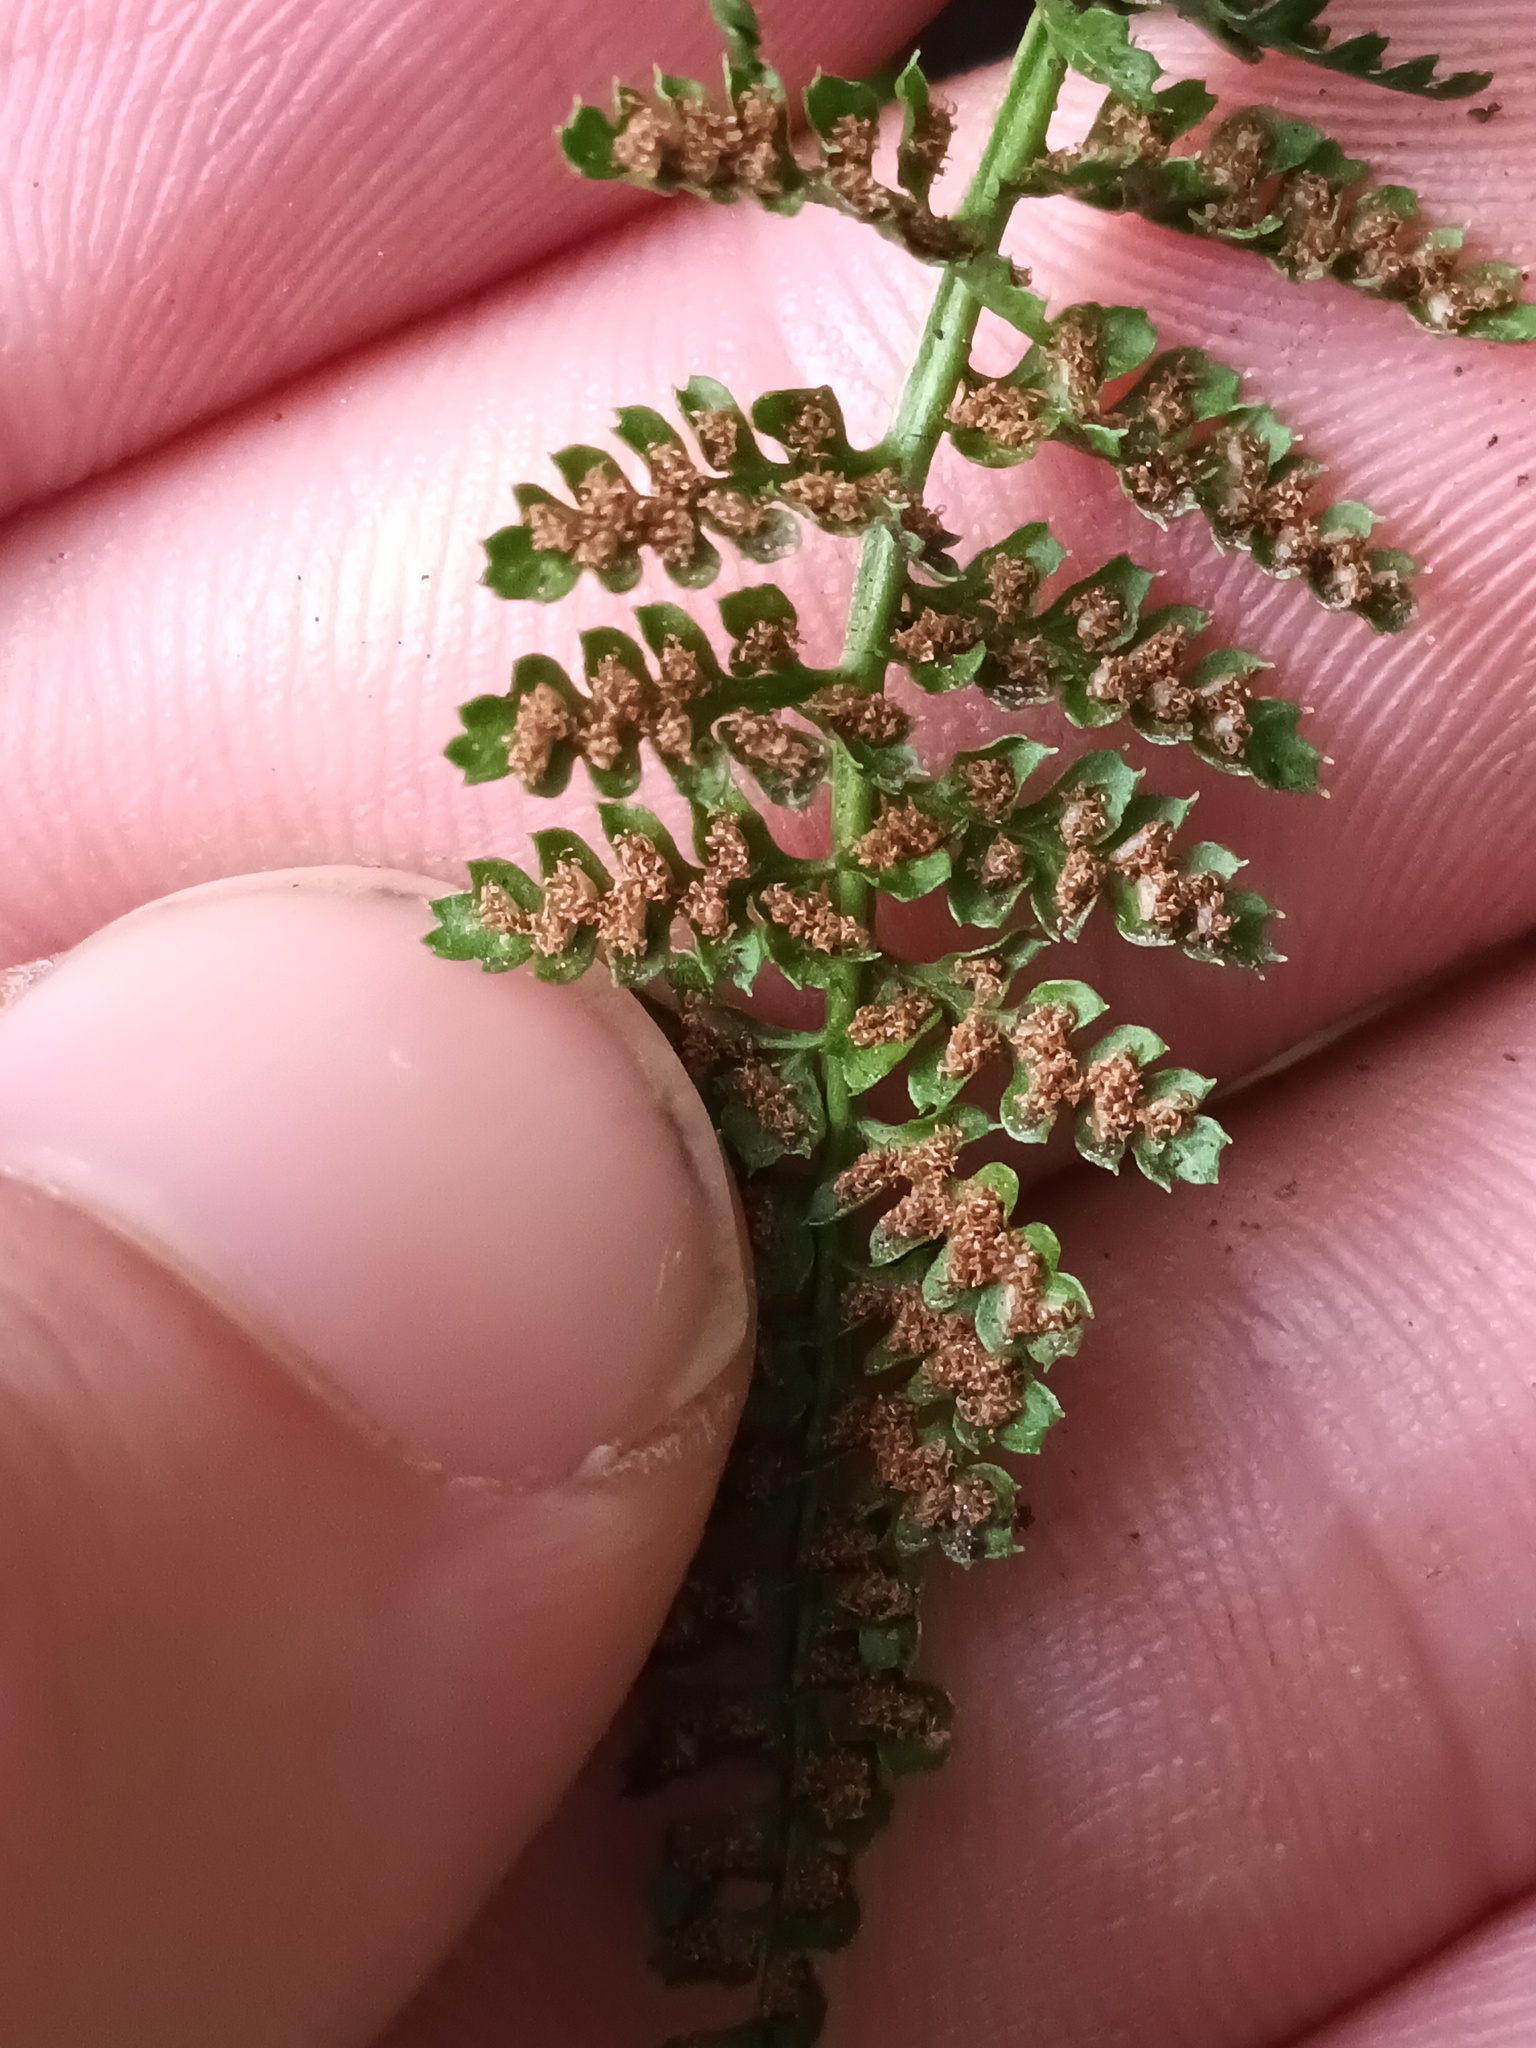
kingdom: Plantae
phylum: Tracheophyta
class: Polypodiopsida
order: Polypodiales
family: Aspleniaceae
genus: Asplenium
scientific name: Asplenium fontanum
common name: Fountain spleenwort
